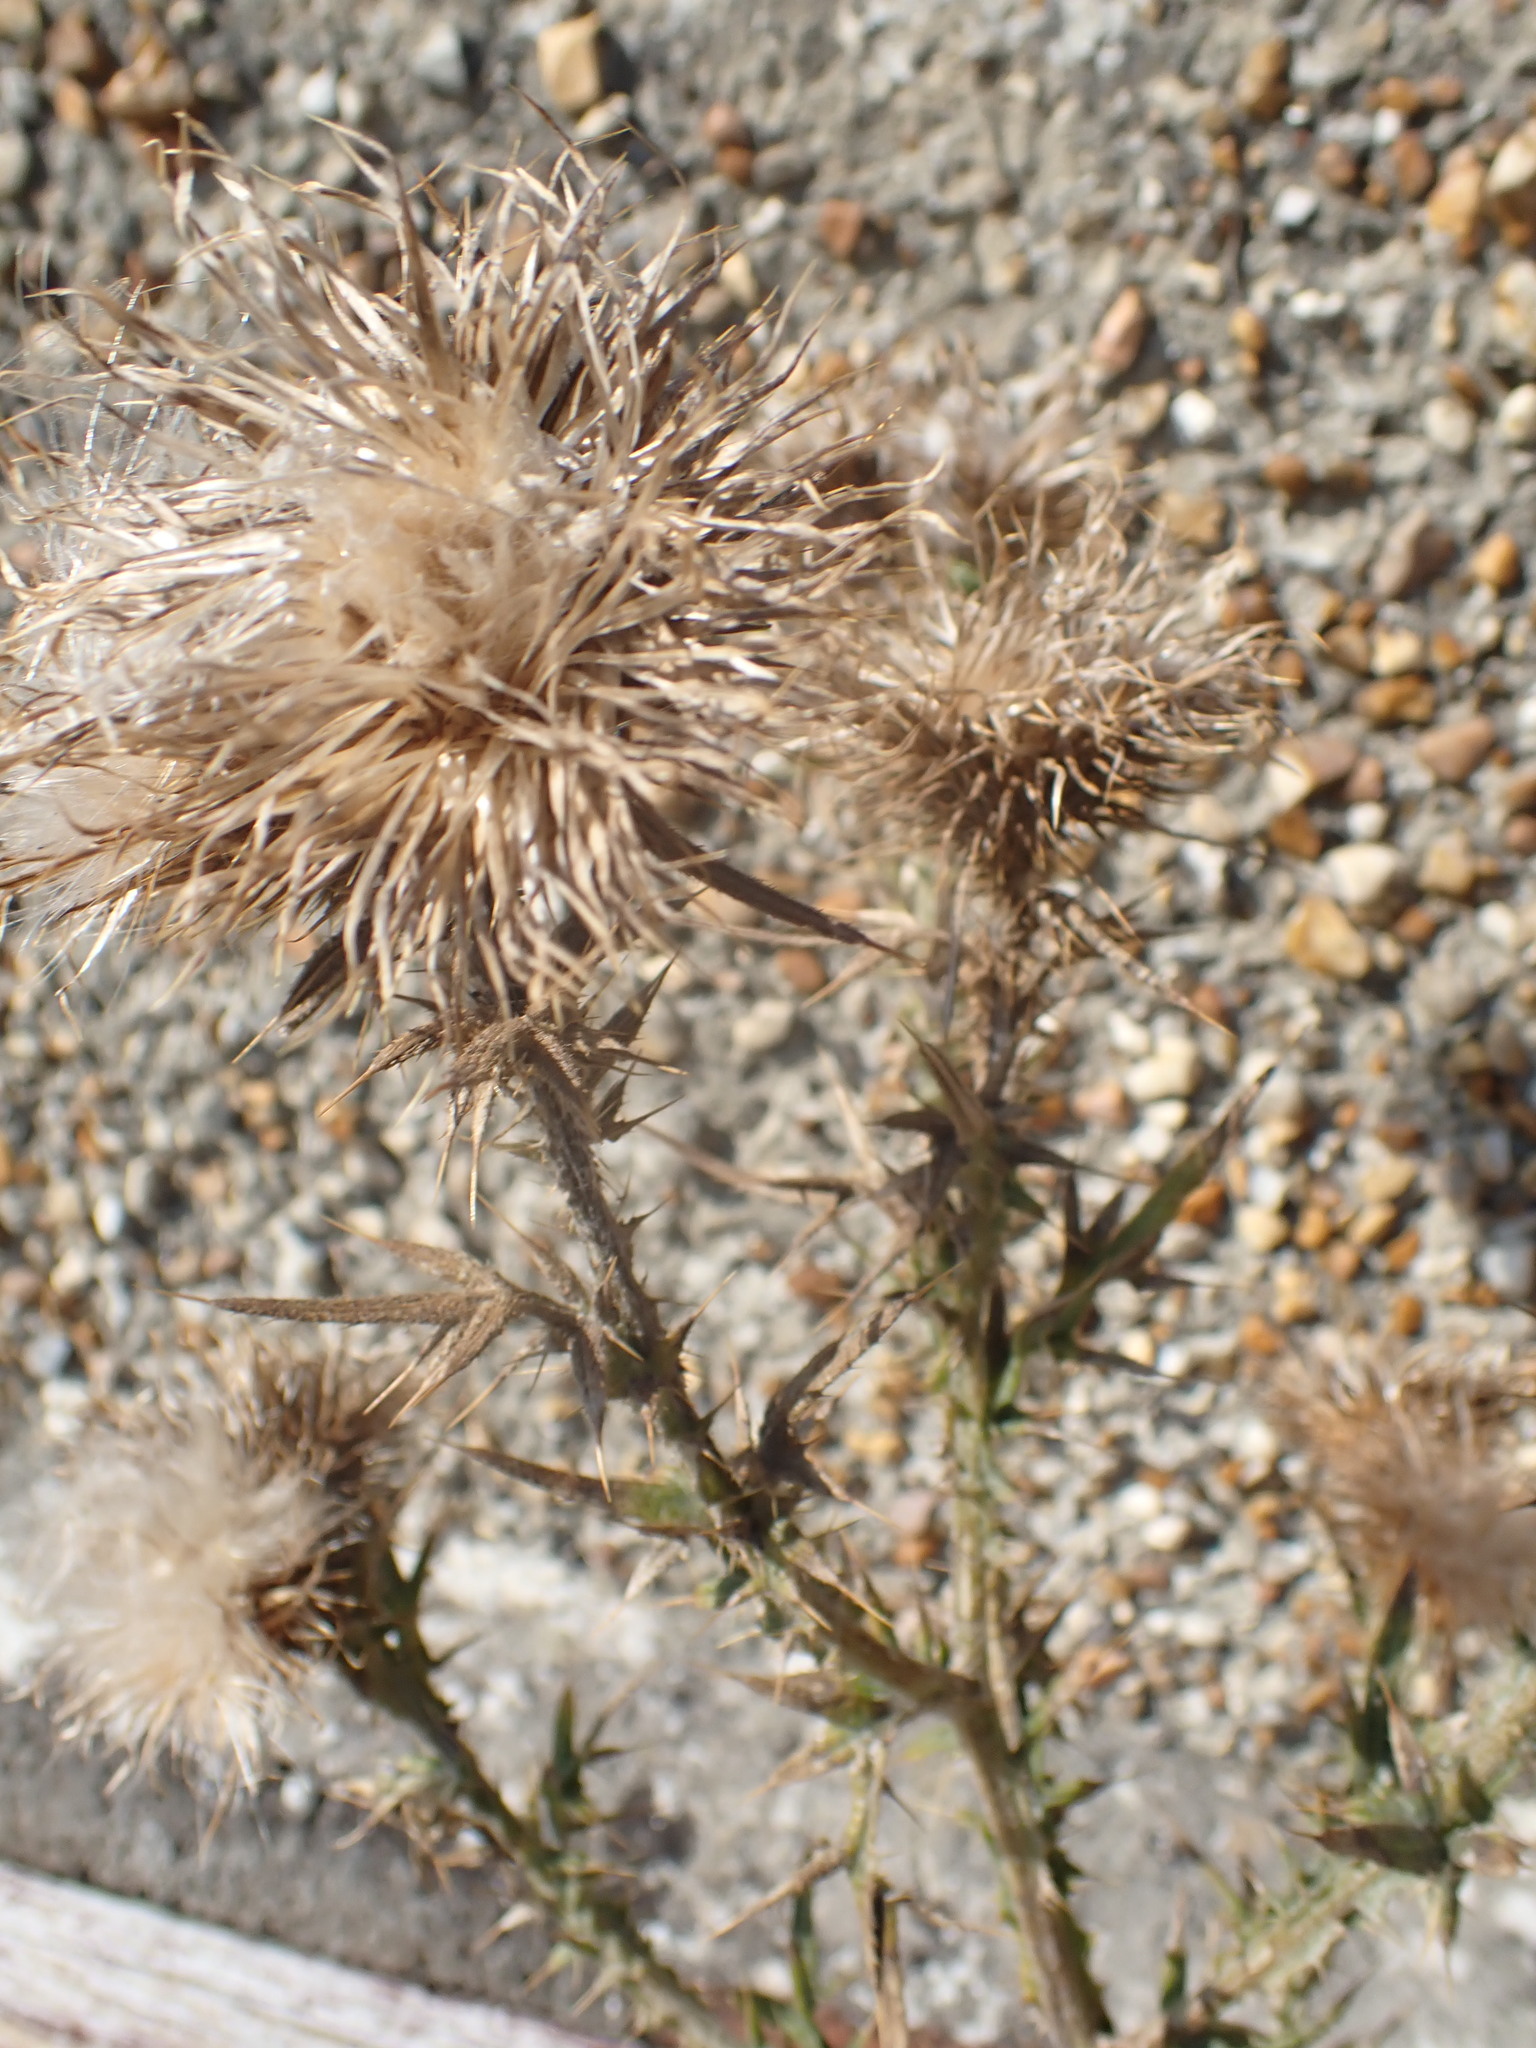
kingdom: Plantae
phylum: Tracheophyta
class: Magnoliopsida
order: Asterales
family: Asteraceae
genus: Cirsium
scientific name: Cirsium vulgare
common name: Bull thistle
